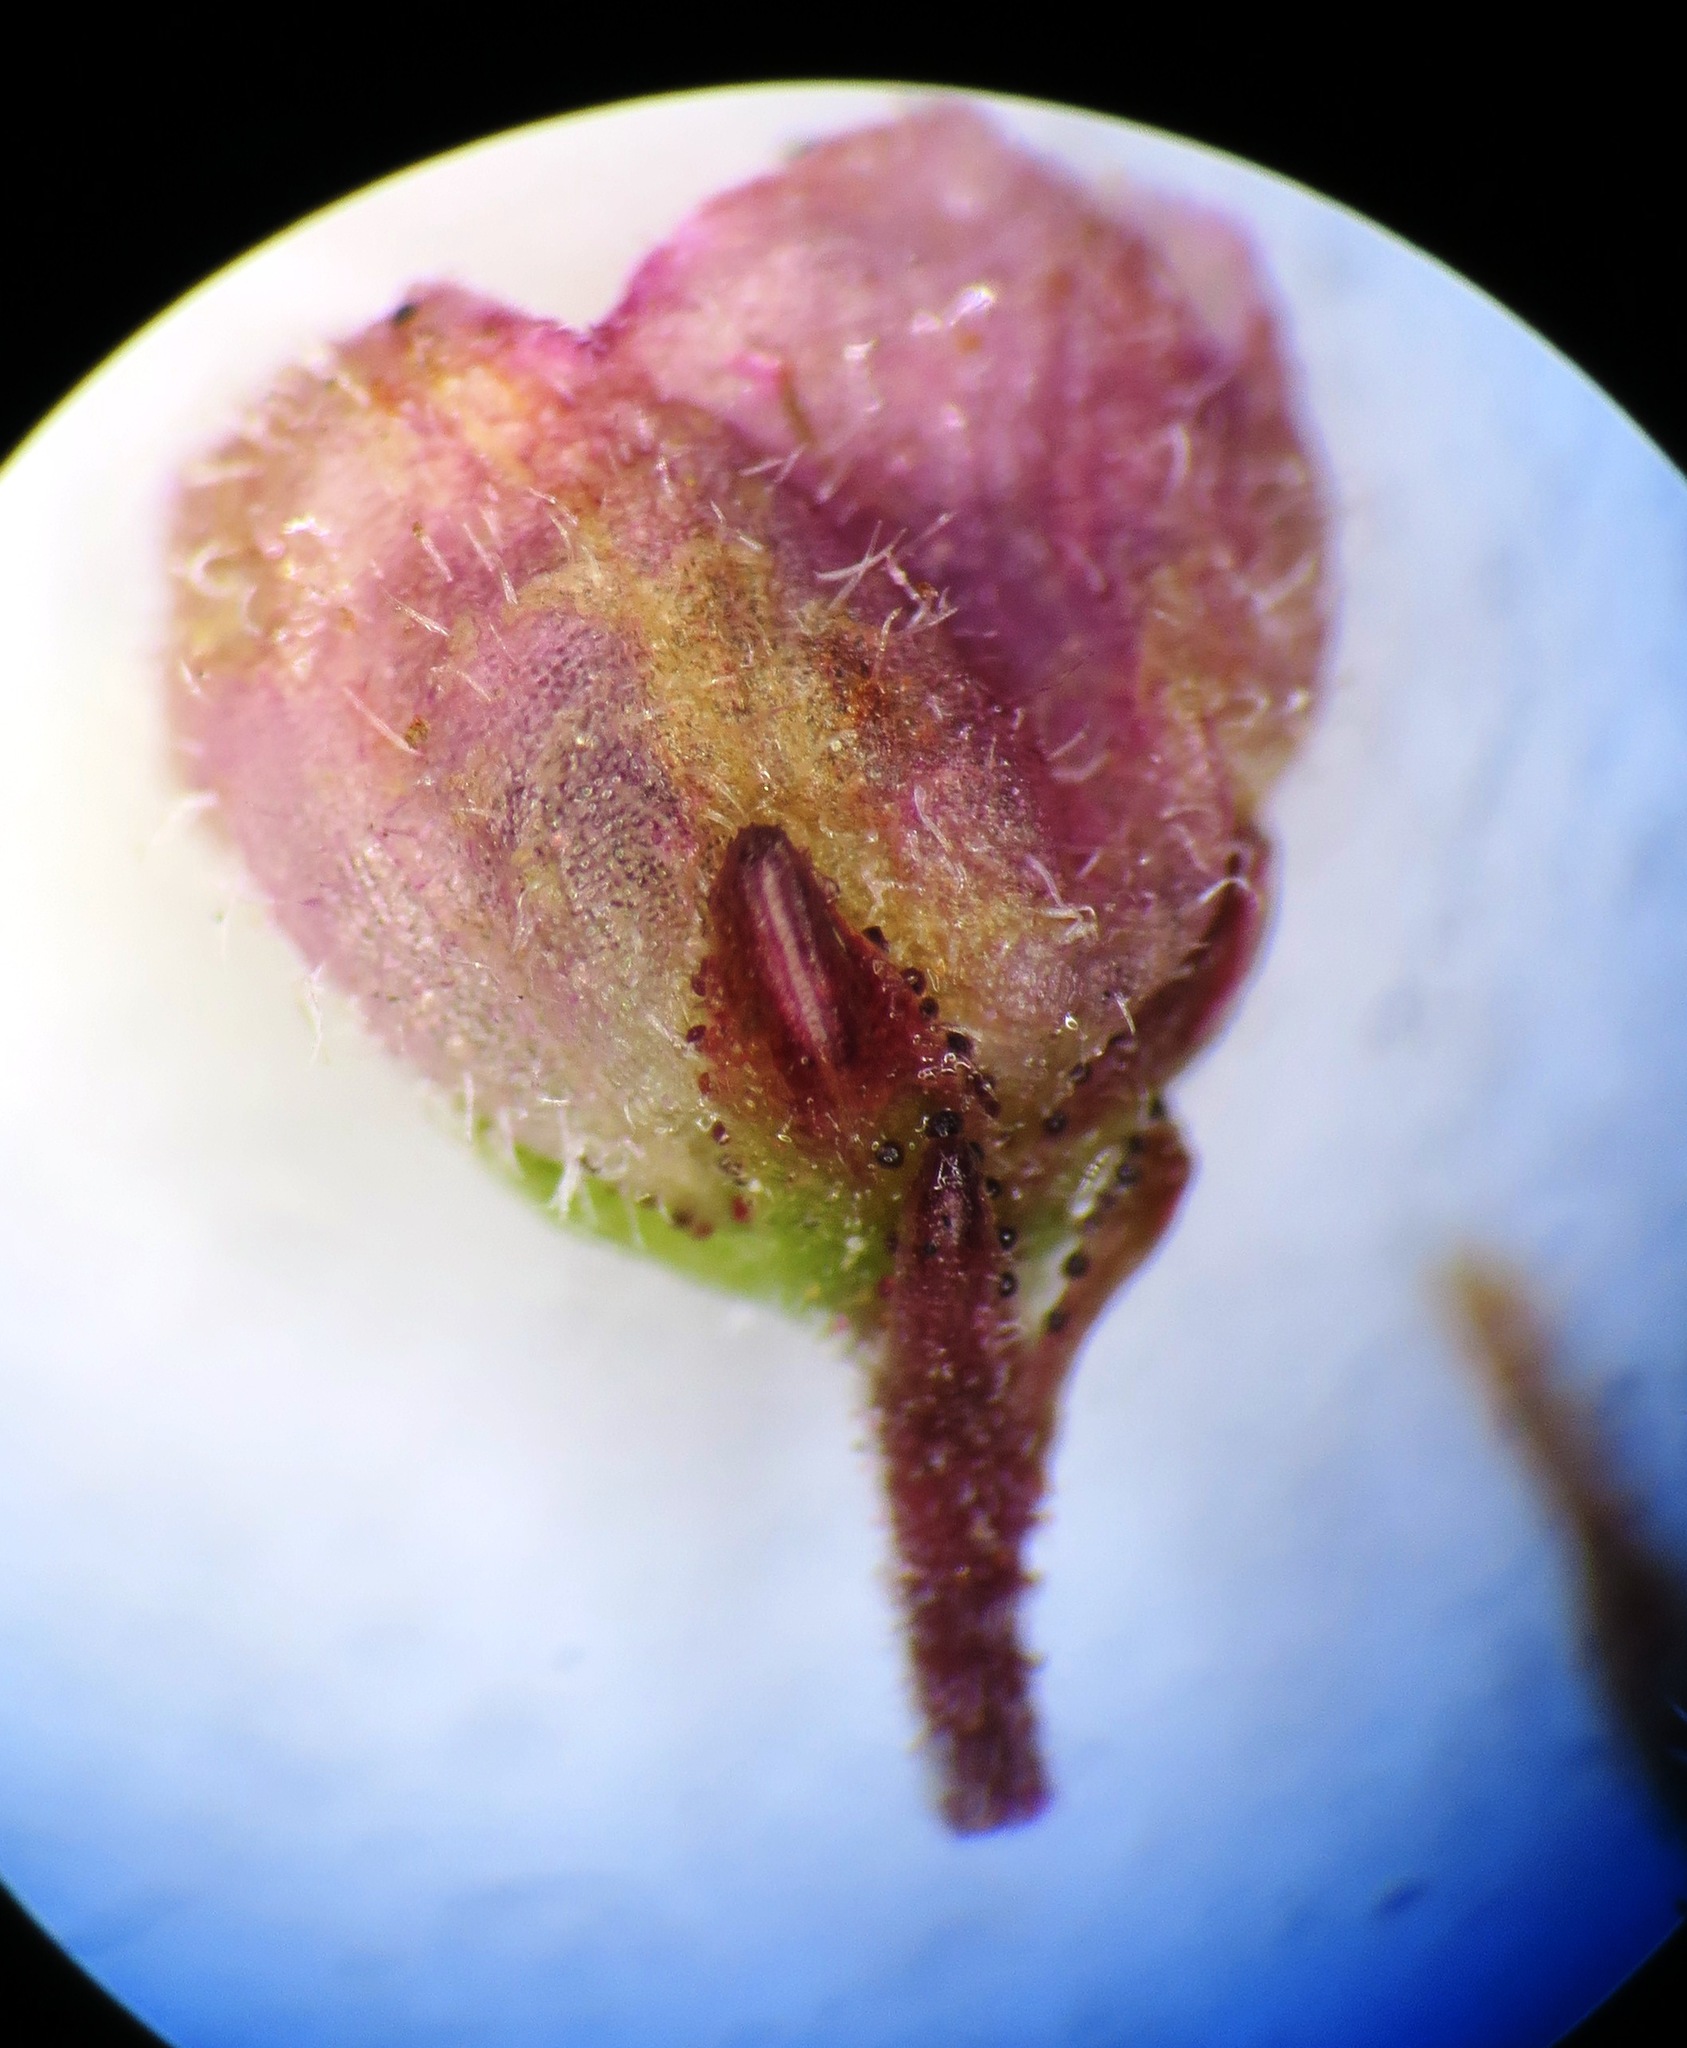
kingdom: Plantae
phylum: Tracheophyta
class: Magnoliopsida
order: Ericales
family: Ericaceae
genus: Erica
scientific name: Erica sicifolia
